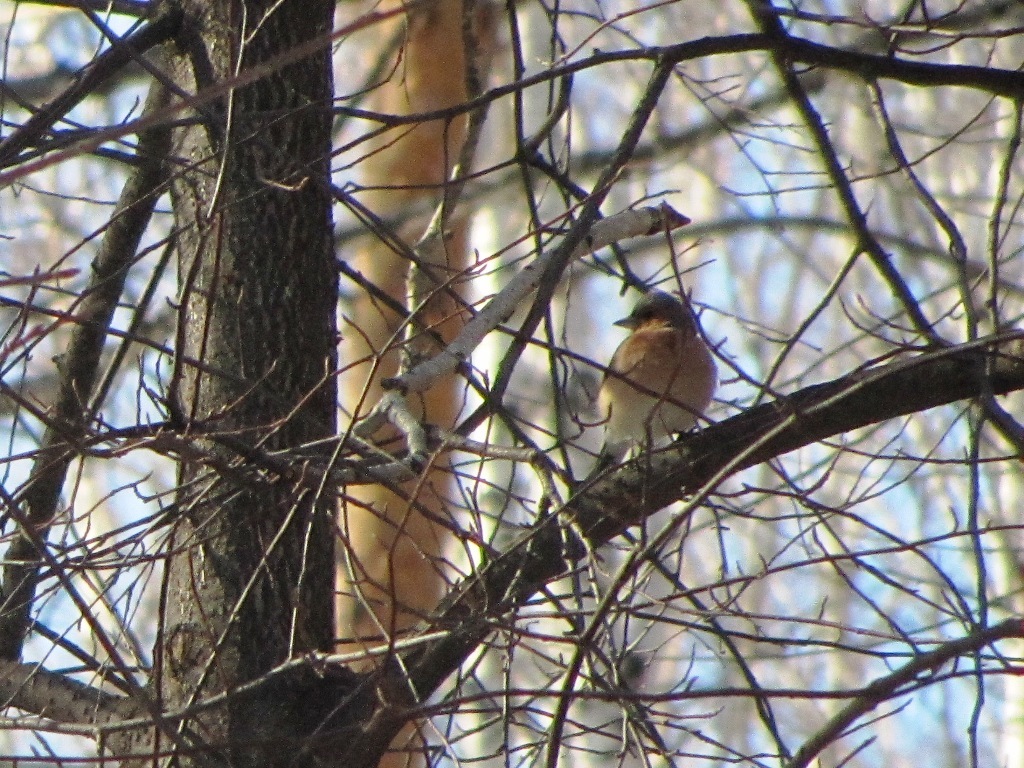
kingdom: Animalia
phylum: Chordata
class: Aves
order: Passeriformes
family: Fringillidae
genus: Fringilla
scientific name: Fringilla coelebs
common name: Common chaffinch
